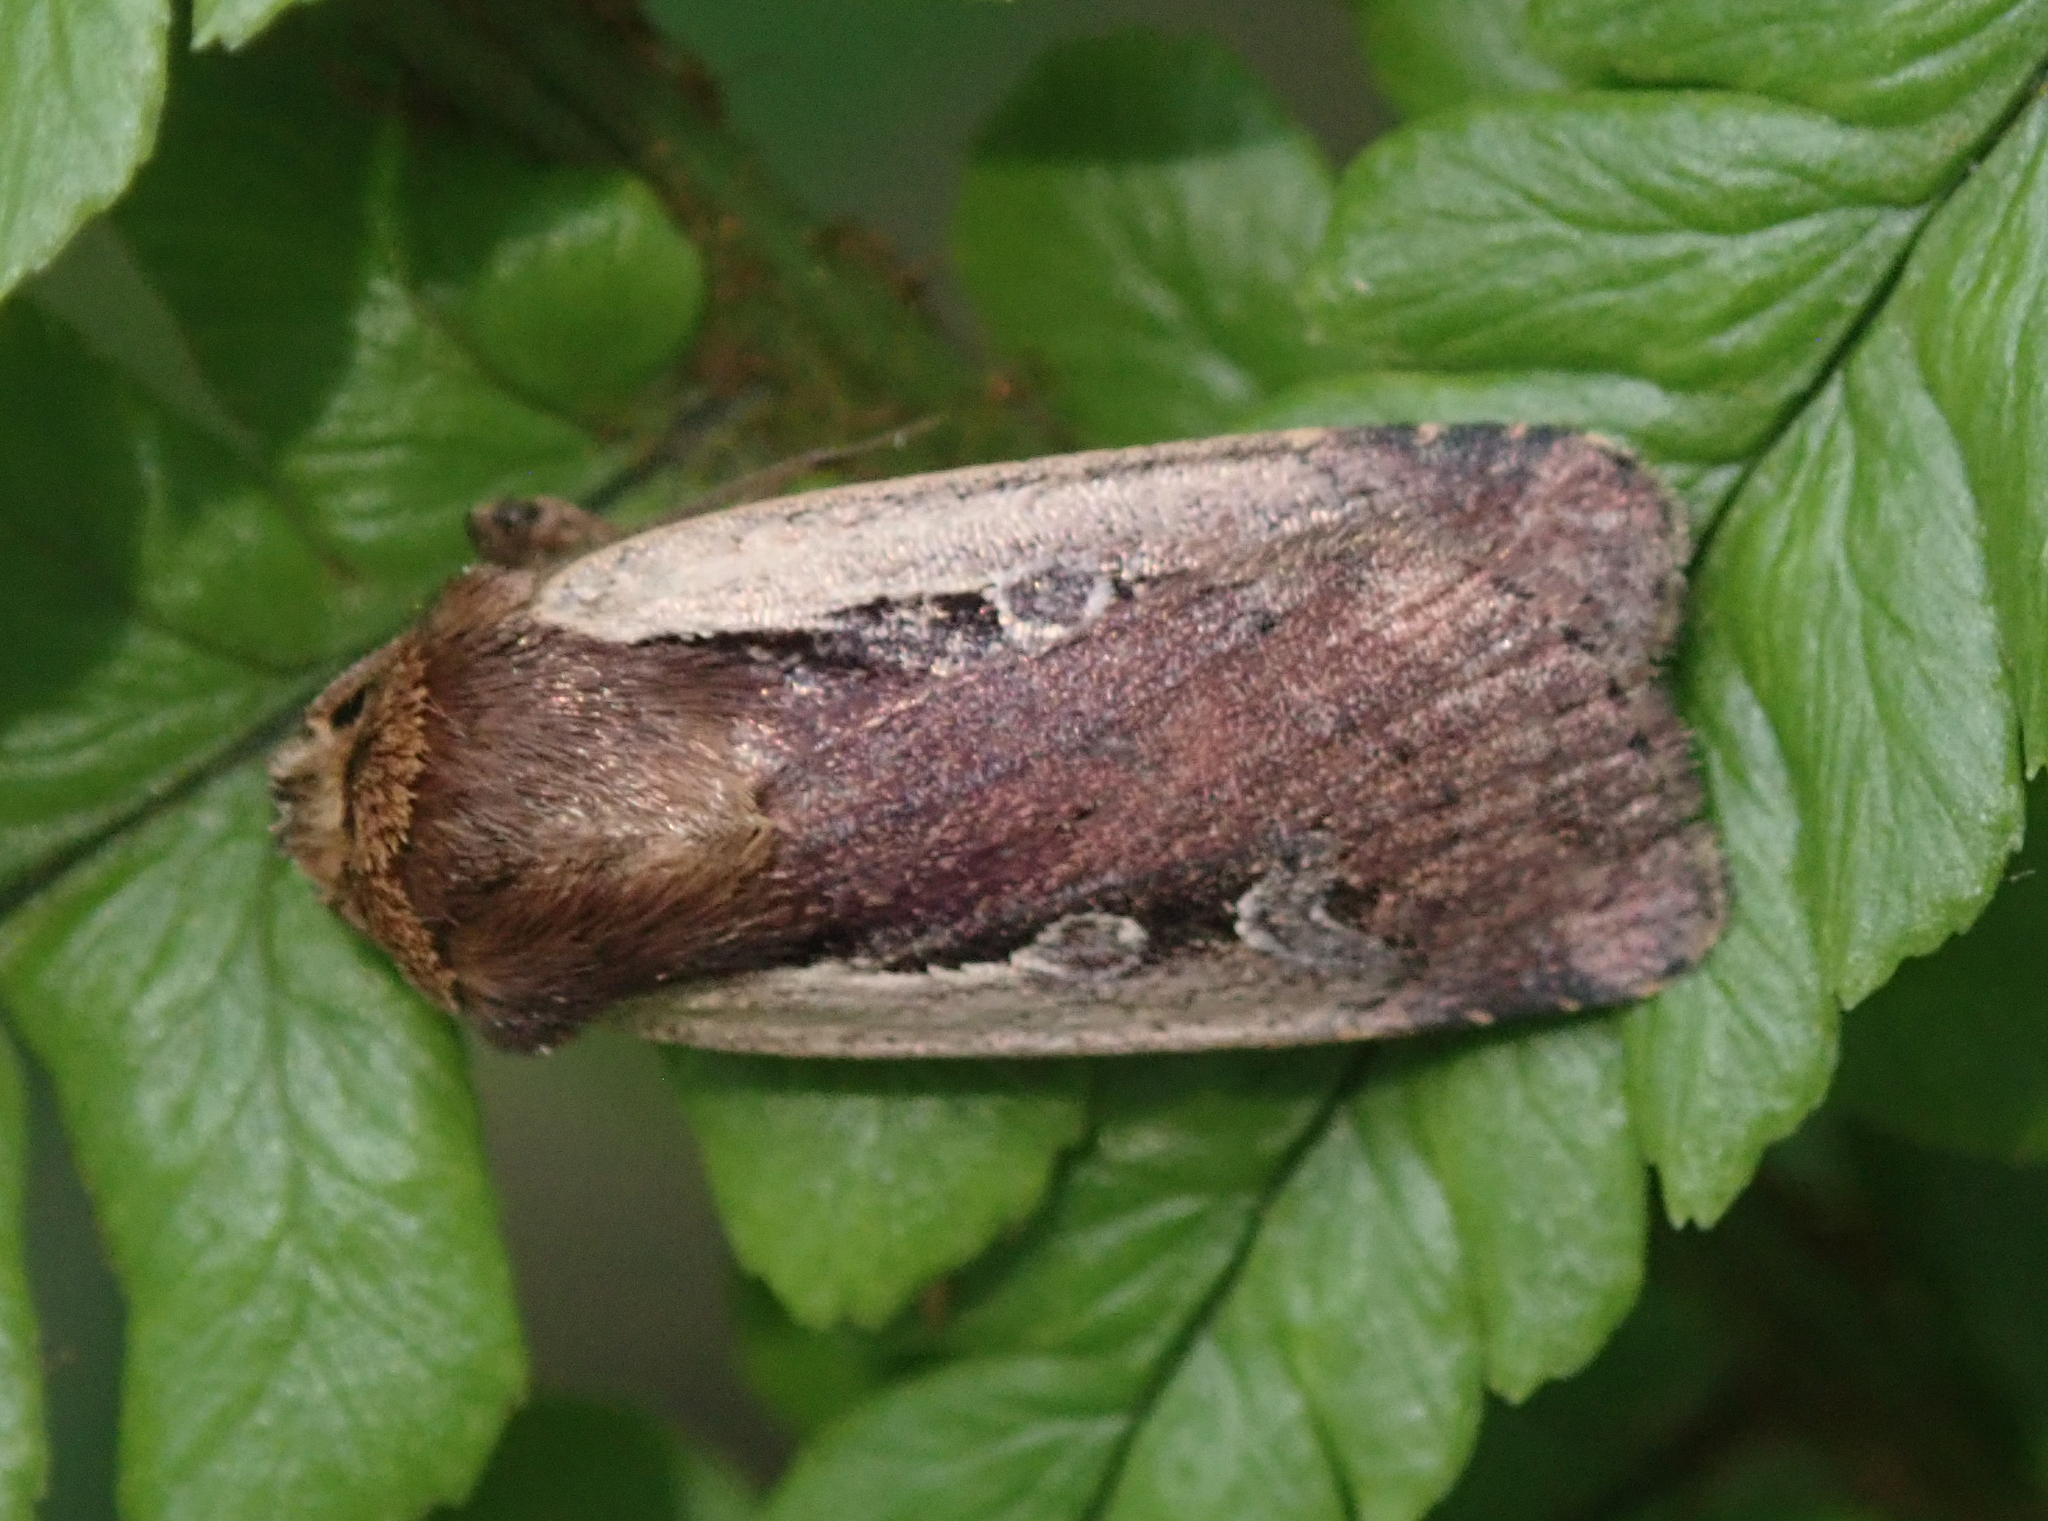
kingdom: Animalia
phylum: Arthropoda
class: Insecta
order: Lepidoptera
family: Noctuidae
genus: Ochropleura
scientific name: Ochropleura plecta
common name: Flame shoulder
